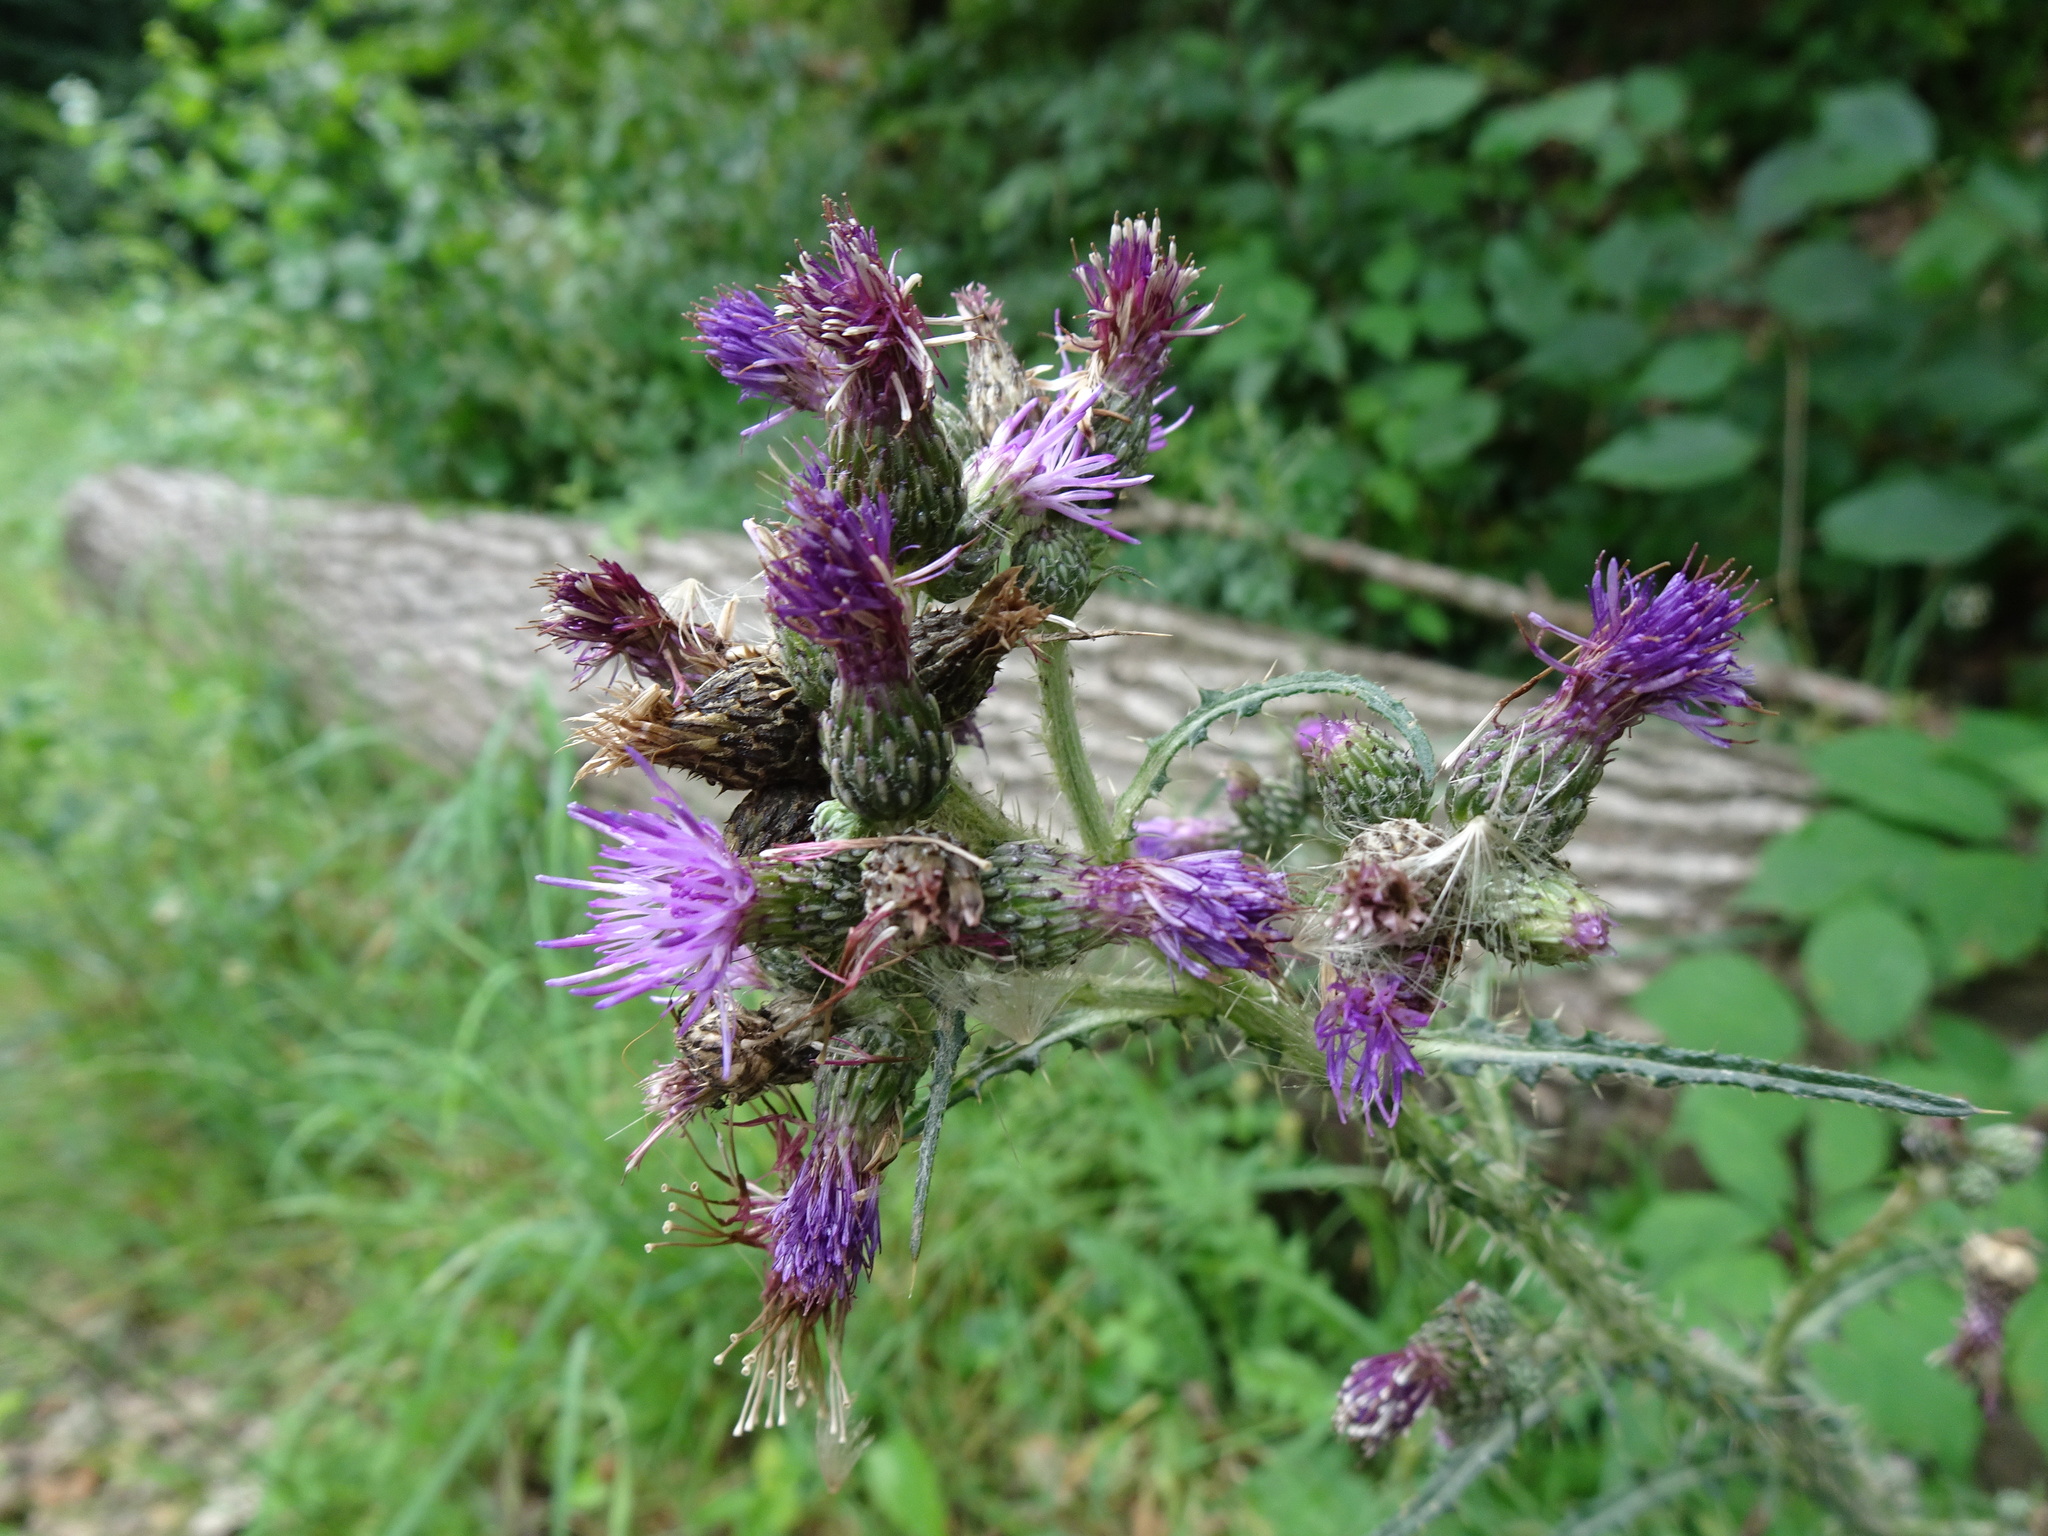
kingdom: Plantae
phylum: Tracheophyta
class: Magnoliopsida
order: Asterales
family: Asteraceae
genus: Cirsium
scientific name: Cirsium palustre
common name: Marsh thistle
